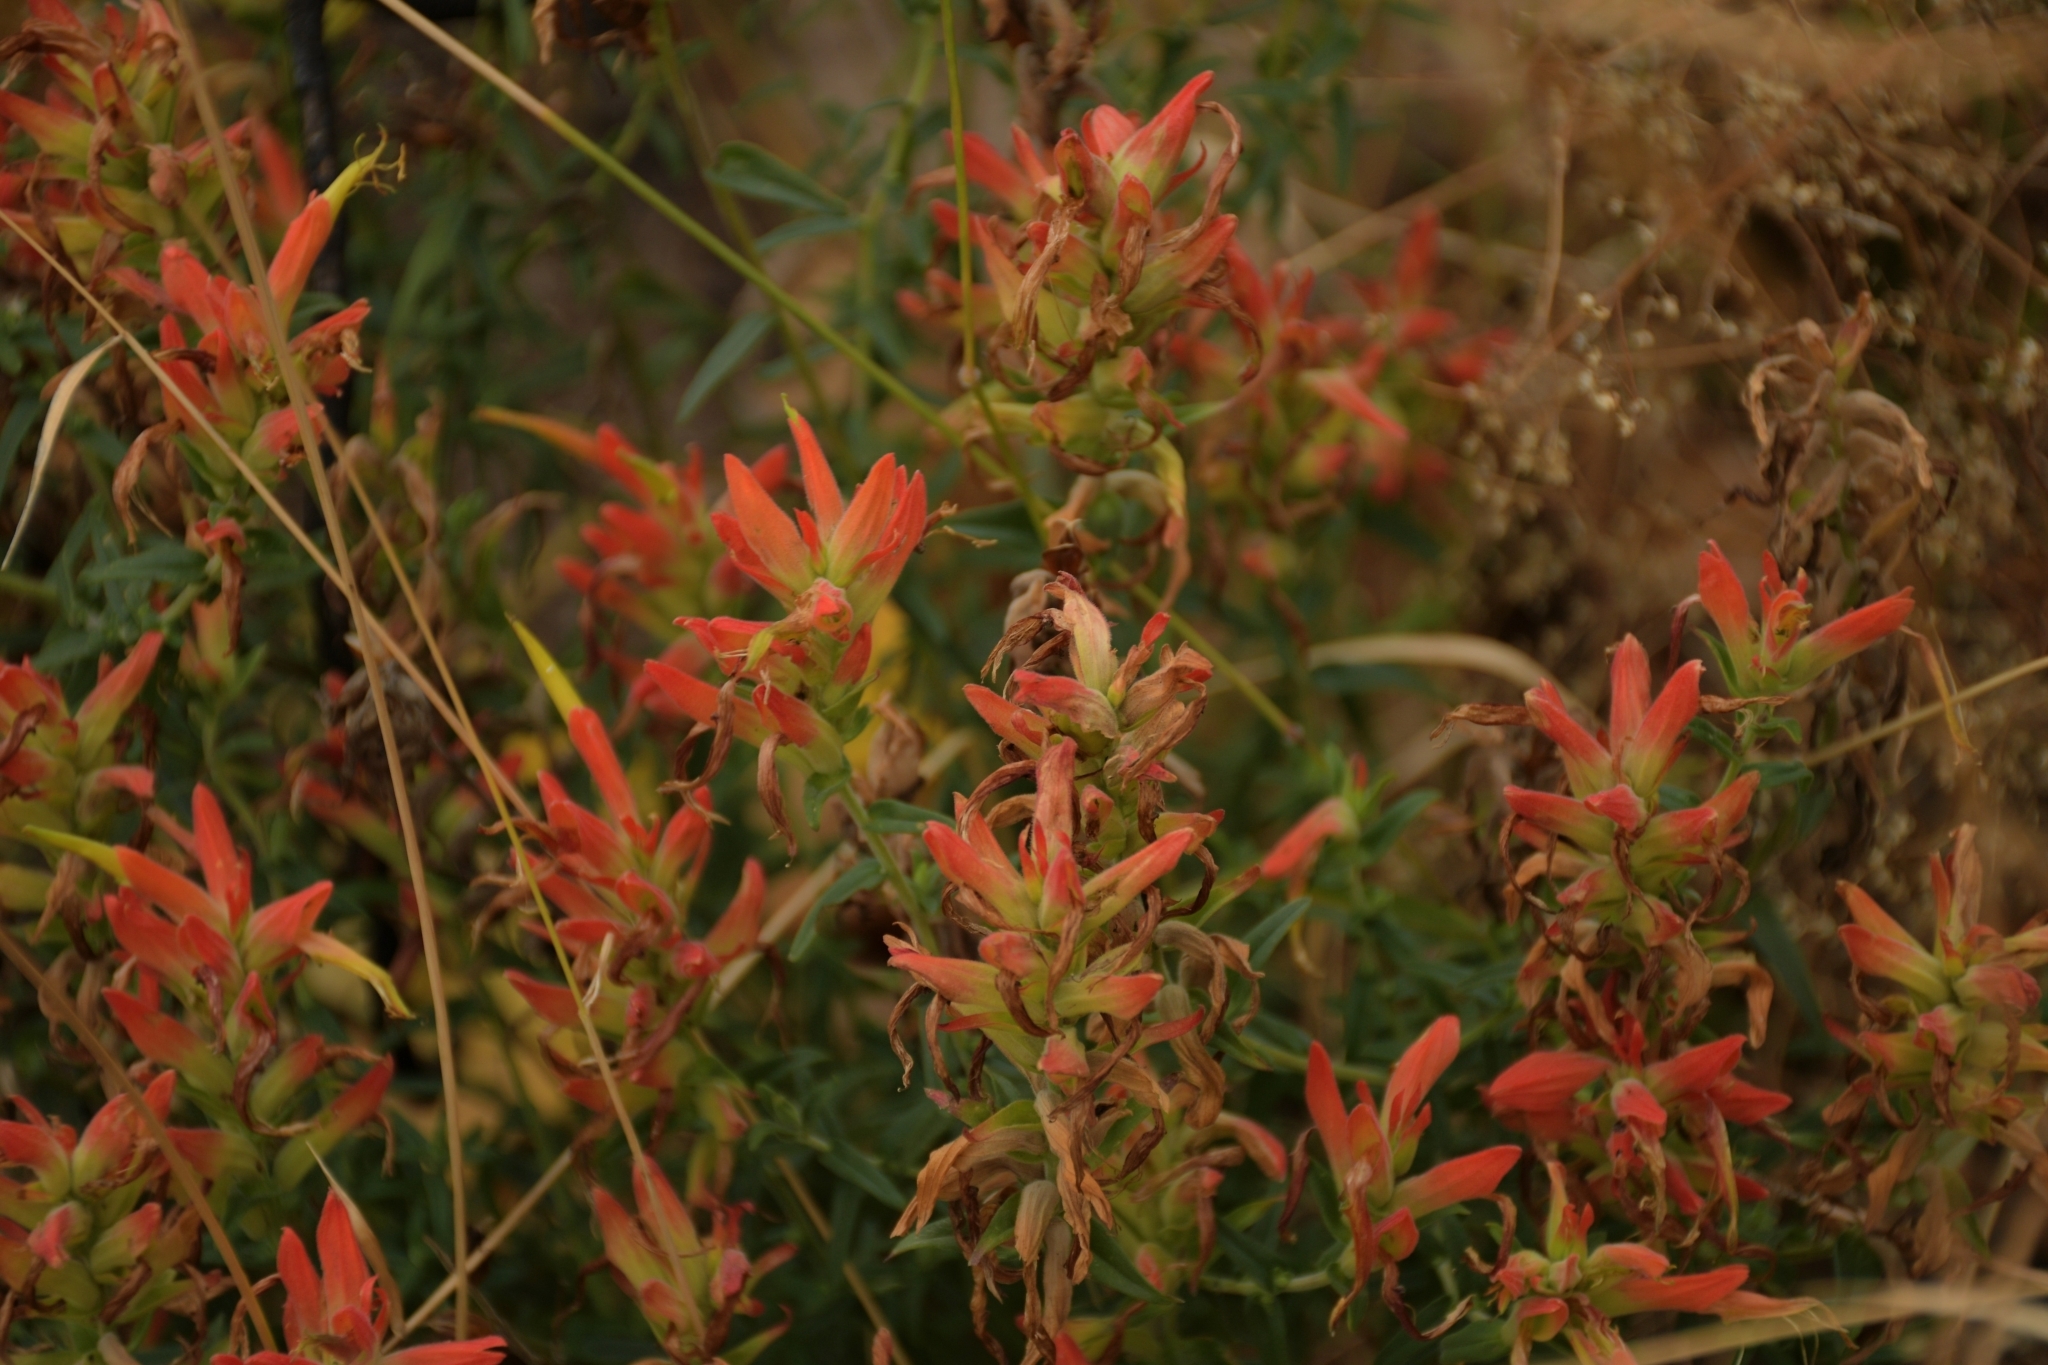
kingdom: Plantae
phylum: Tracheophyta
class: Magnoliopsida
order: Lamiales
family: Orobanchaceae
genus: Castilleja
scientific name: Castilleja tenuiflora
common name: Santa catalina indian paintbrush
